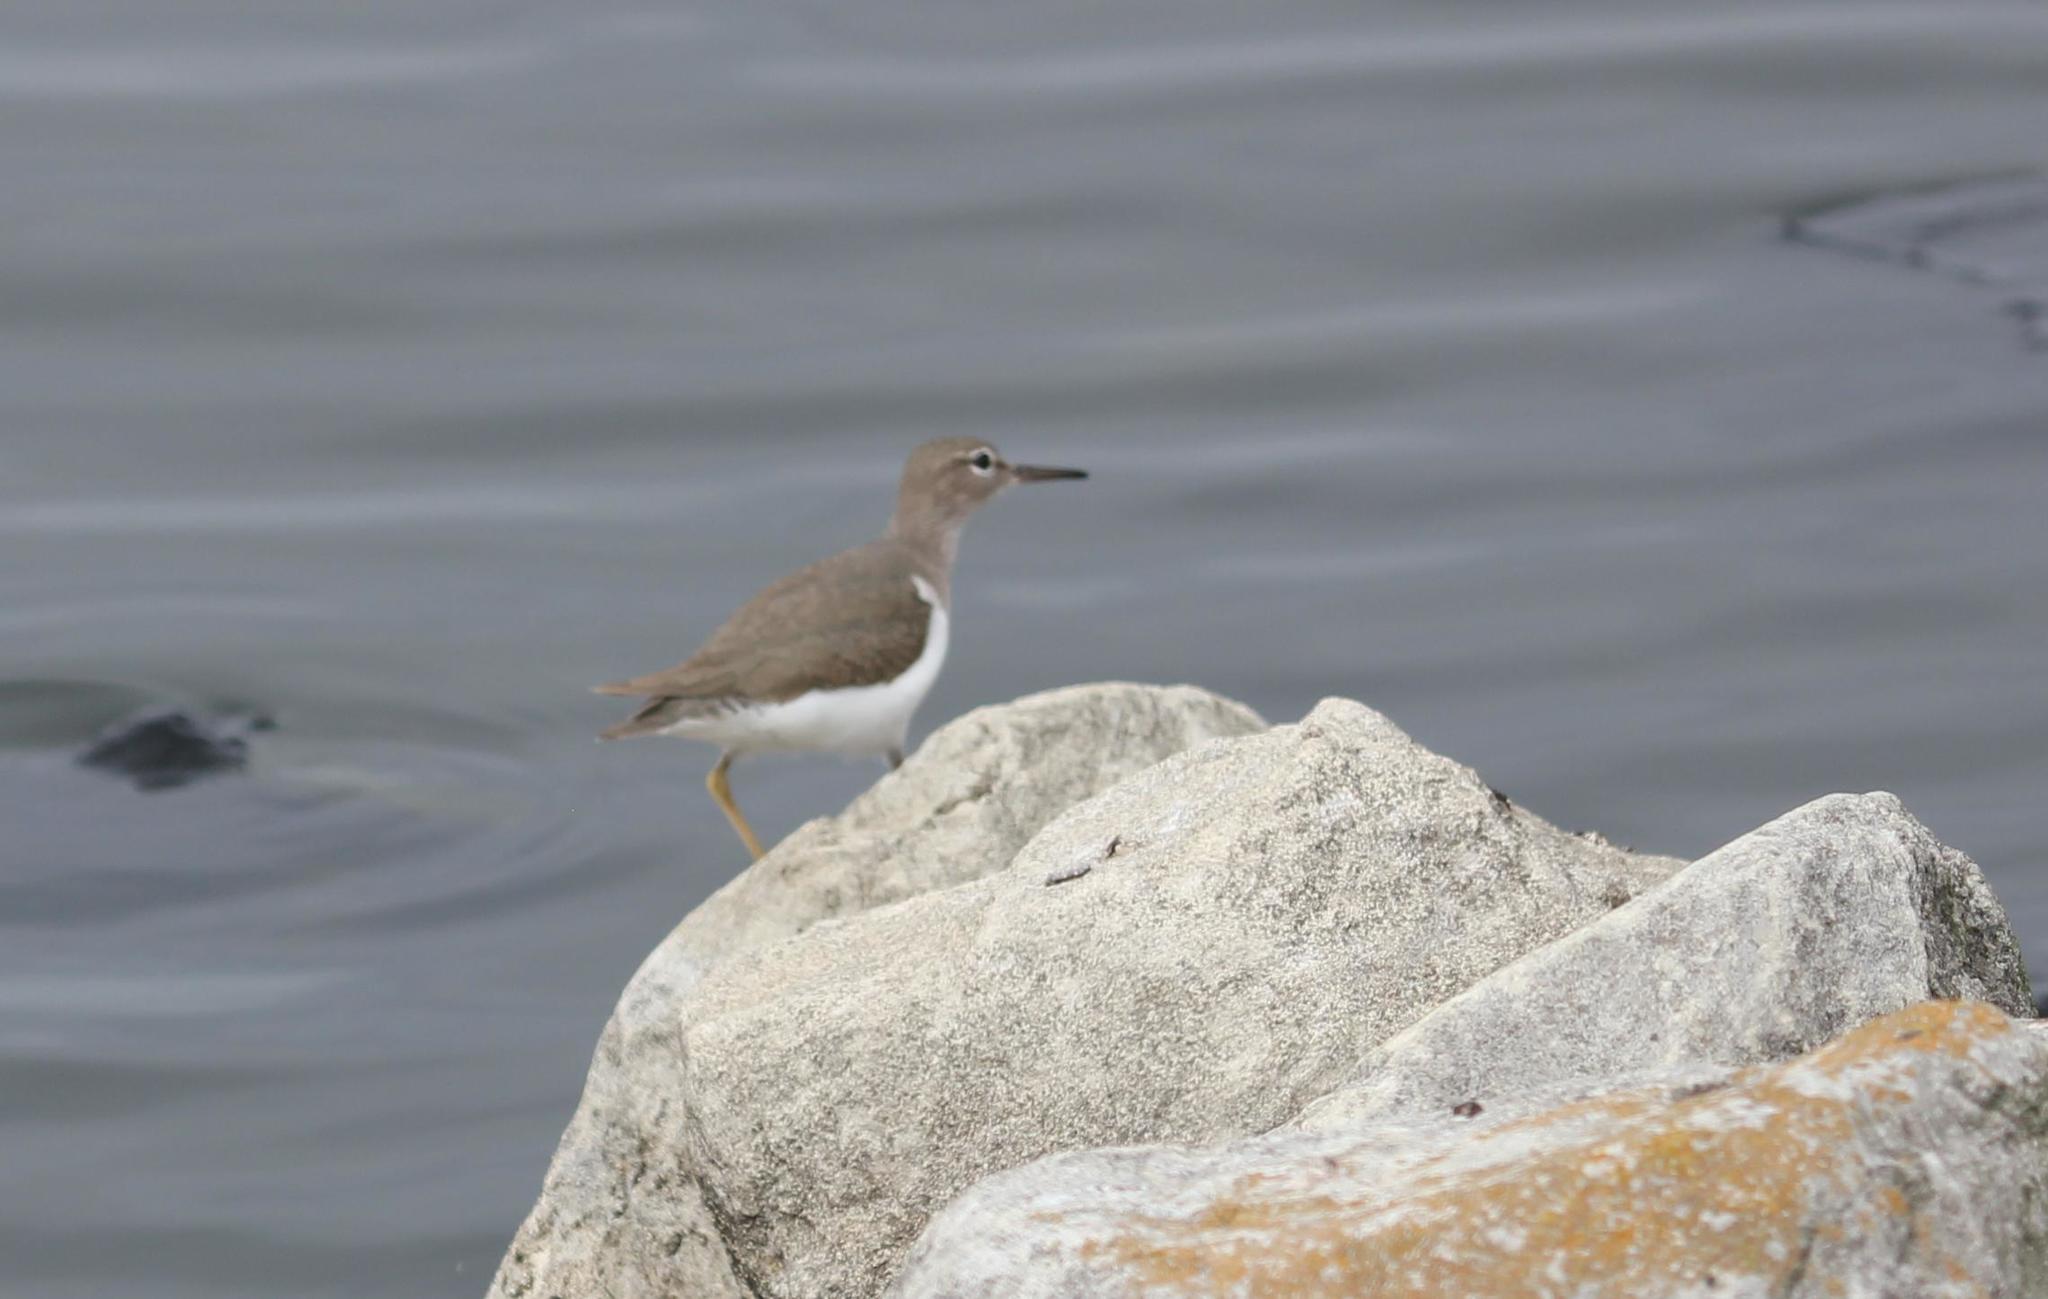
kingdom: Animalia
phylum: Chordata
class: Aves
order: Charadriiformes
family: Scolopacidae
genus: Actitis
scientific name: Actitis macularius
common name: Spotted sandpiper
